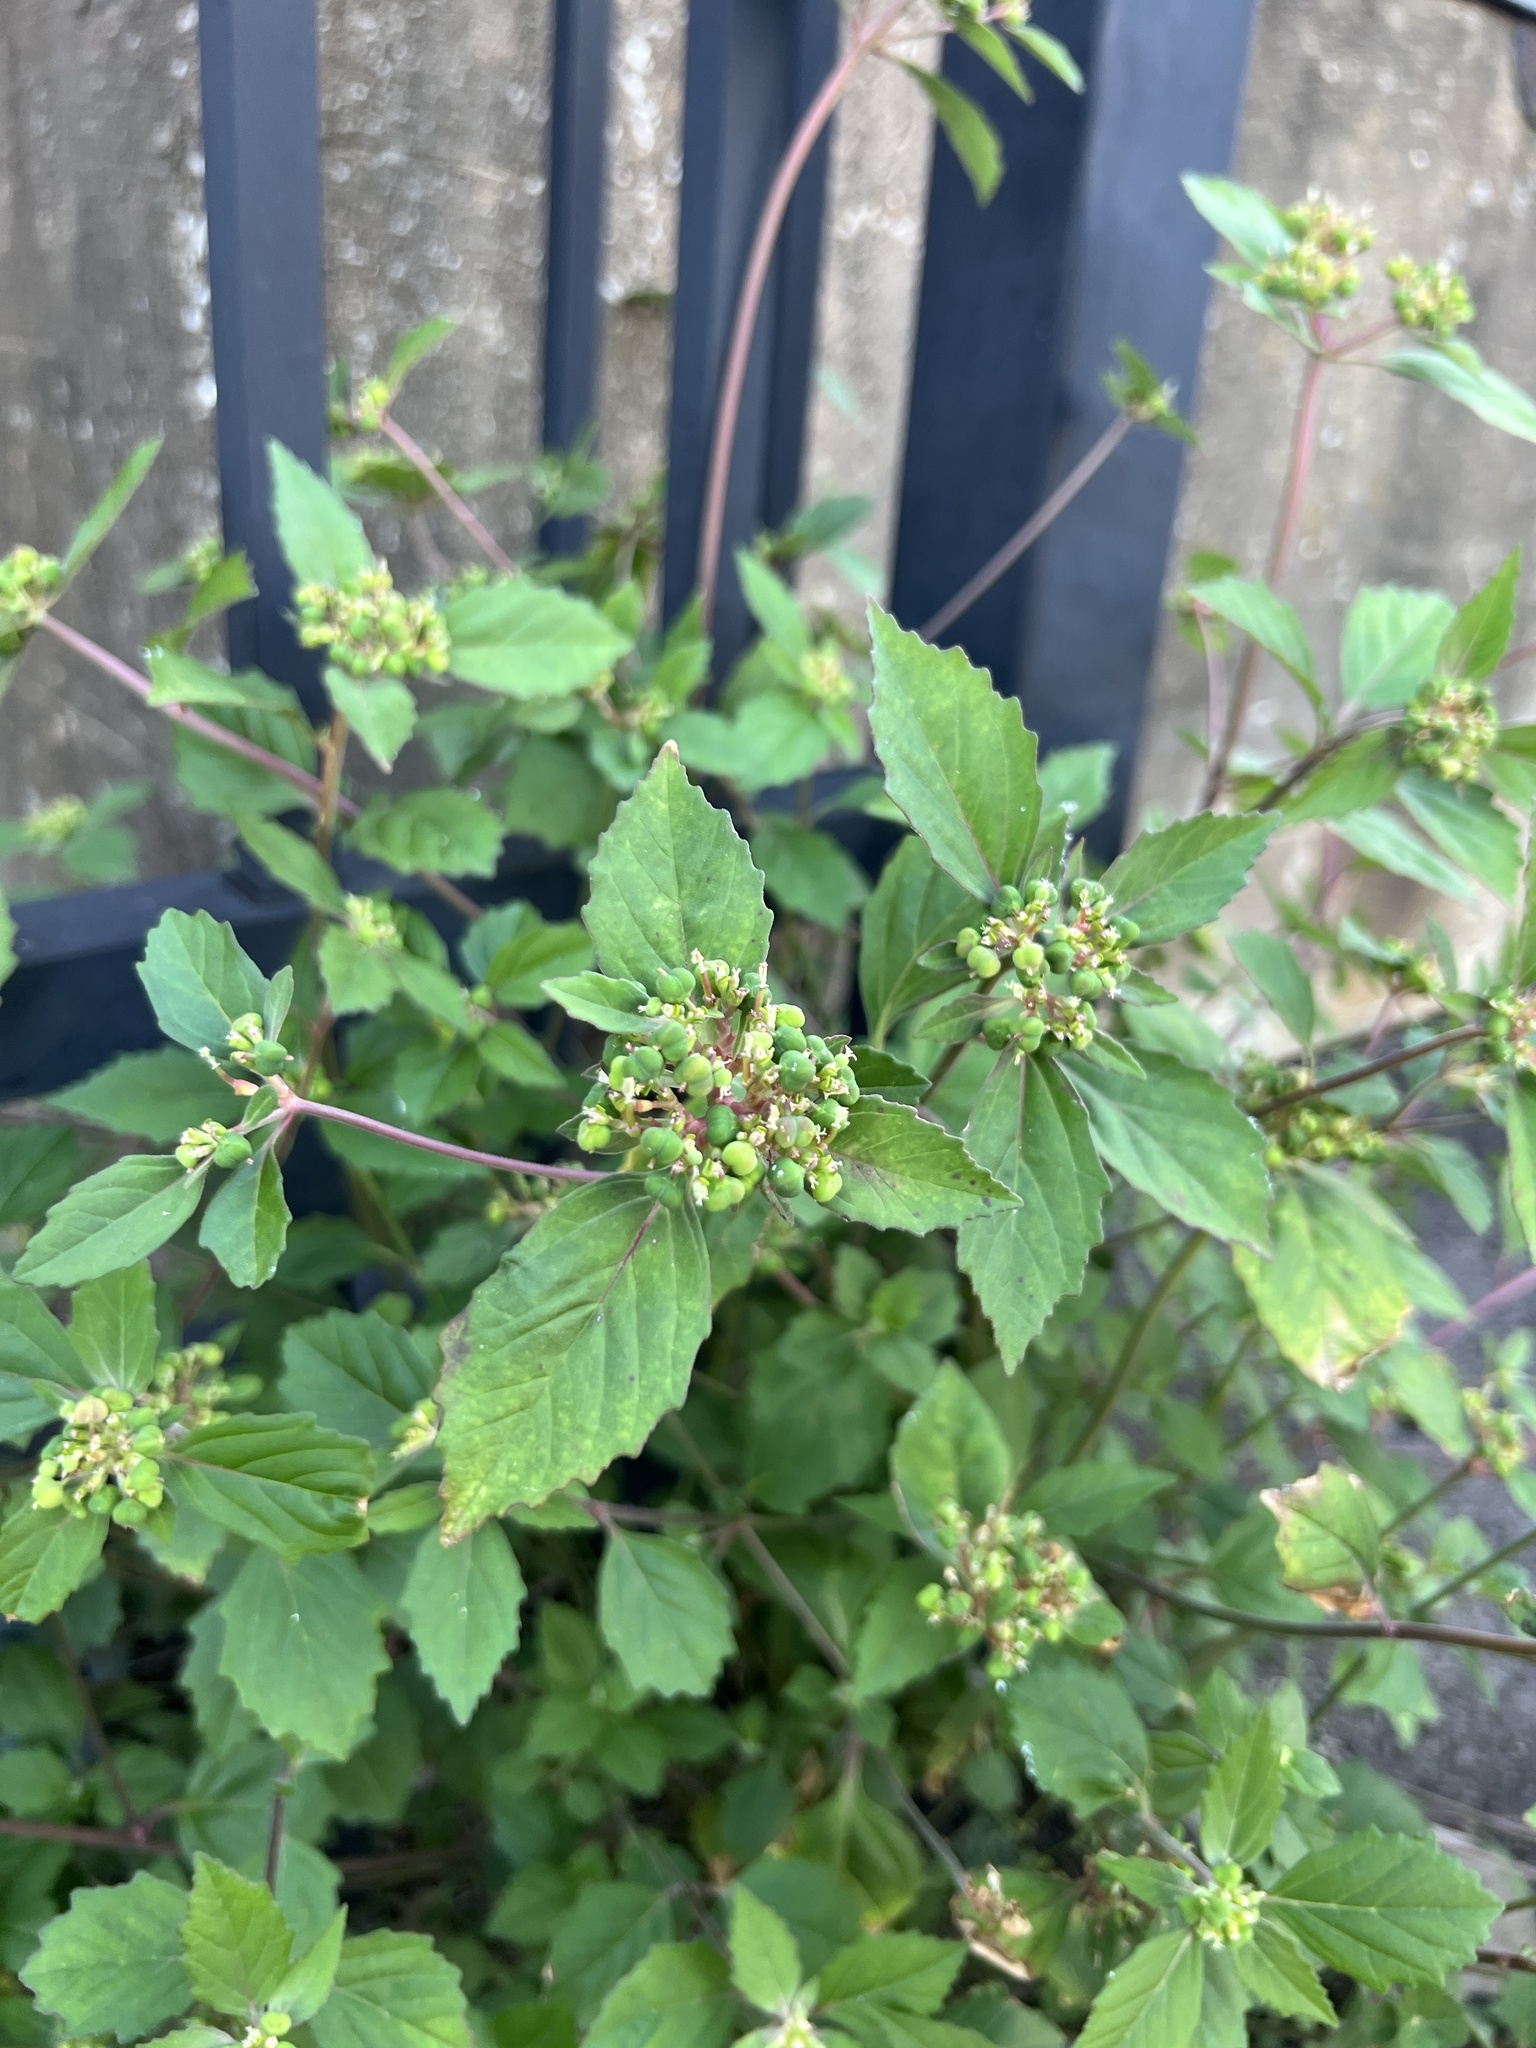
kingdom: Plantae
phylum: Tracheophyta
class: Magnoliopsida
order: Malpighiales
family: Euphorbiaceae
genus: Euphorbia
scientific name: Euphorbia dentata
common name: Dentate spurge
